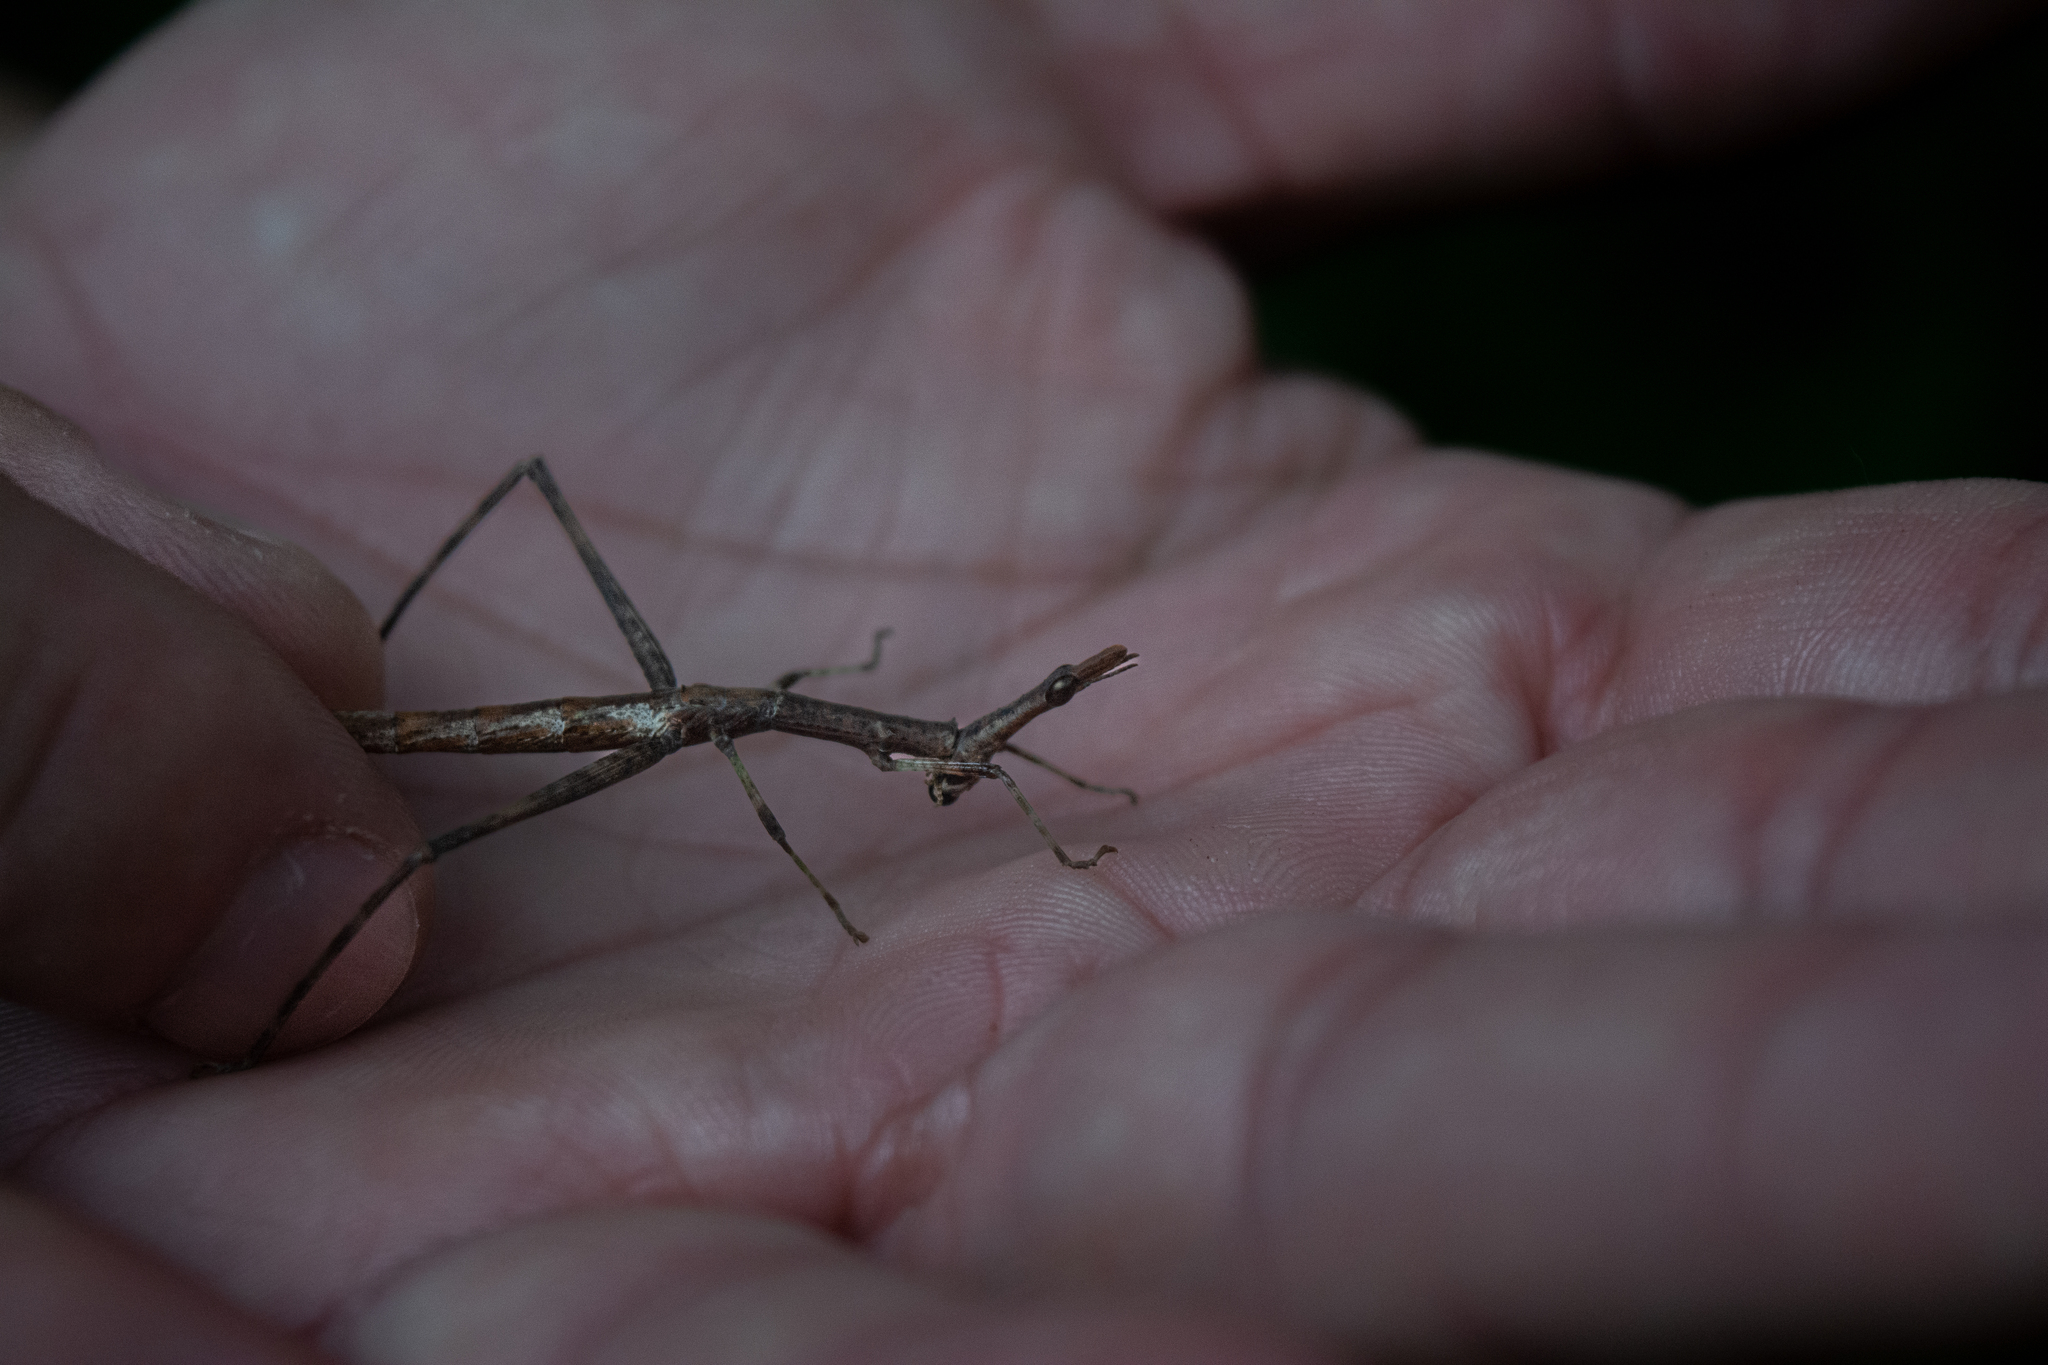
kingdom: Animalia
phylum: Arthropoda
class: Insecta
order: Orthoptera
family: Proscopiidae
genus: Stiphra
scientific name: Stiphra tuberculata
